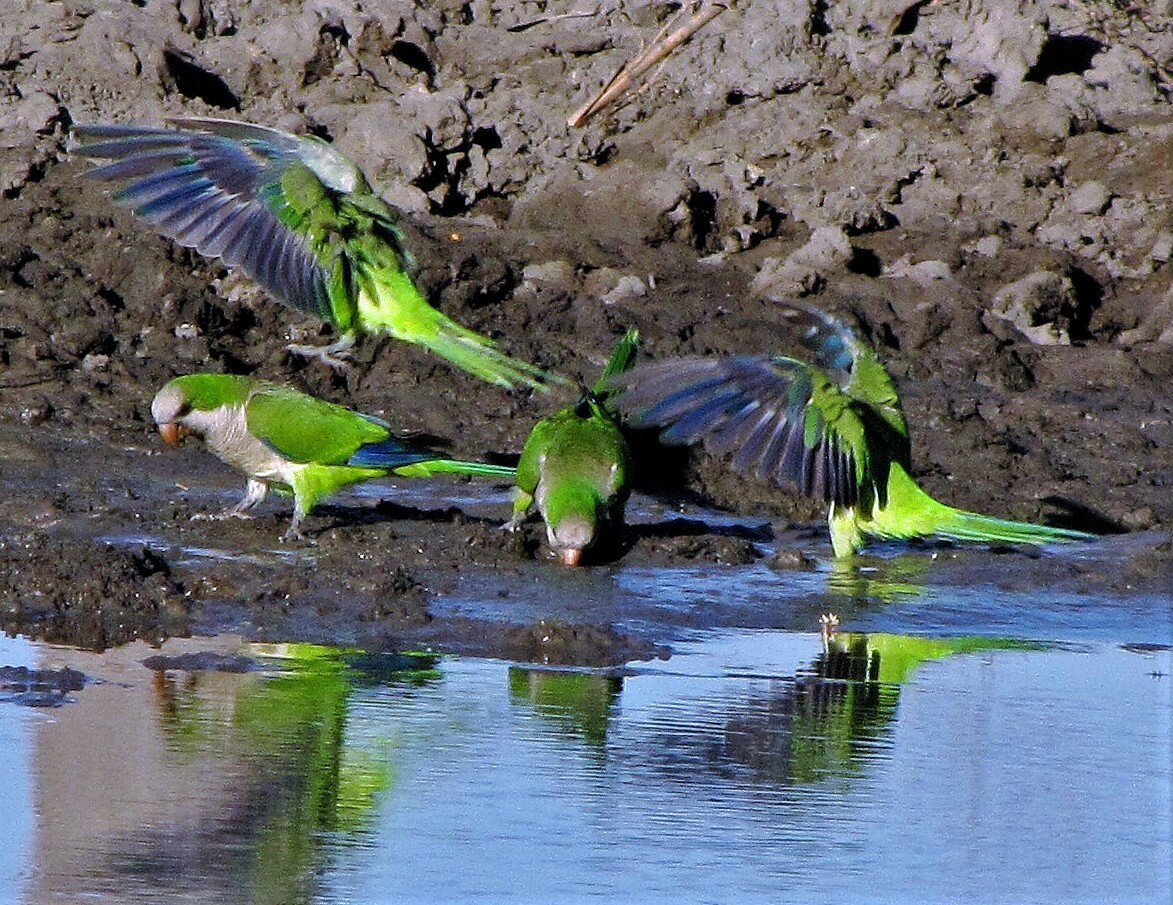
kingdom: Animalia
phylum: Chordata
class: Aves
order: Psittaciformes
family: Psittacidae
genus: Myiopsitta
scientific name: Myiopsitta monachus
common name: Monk parakeet
